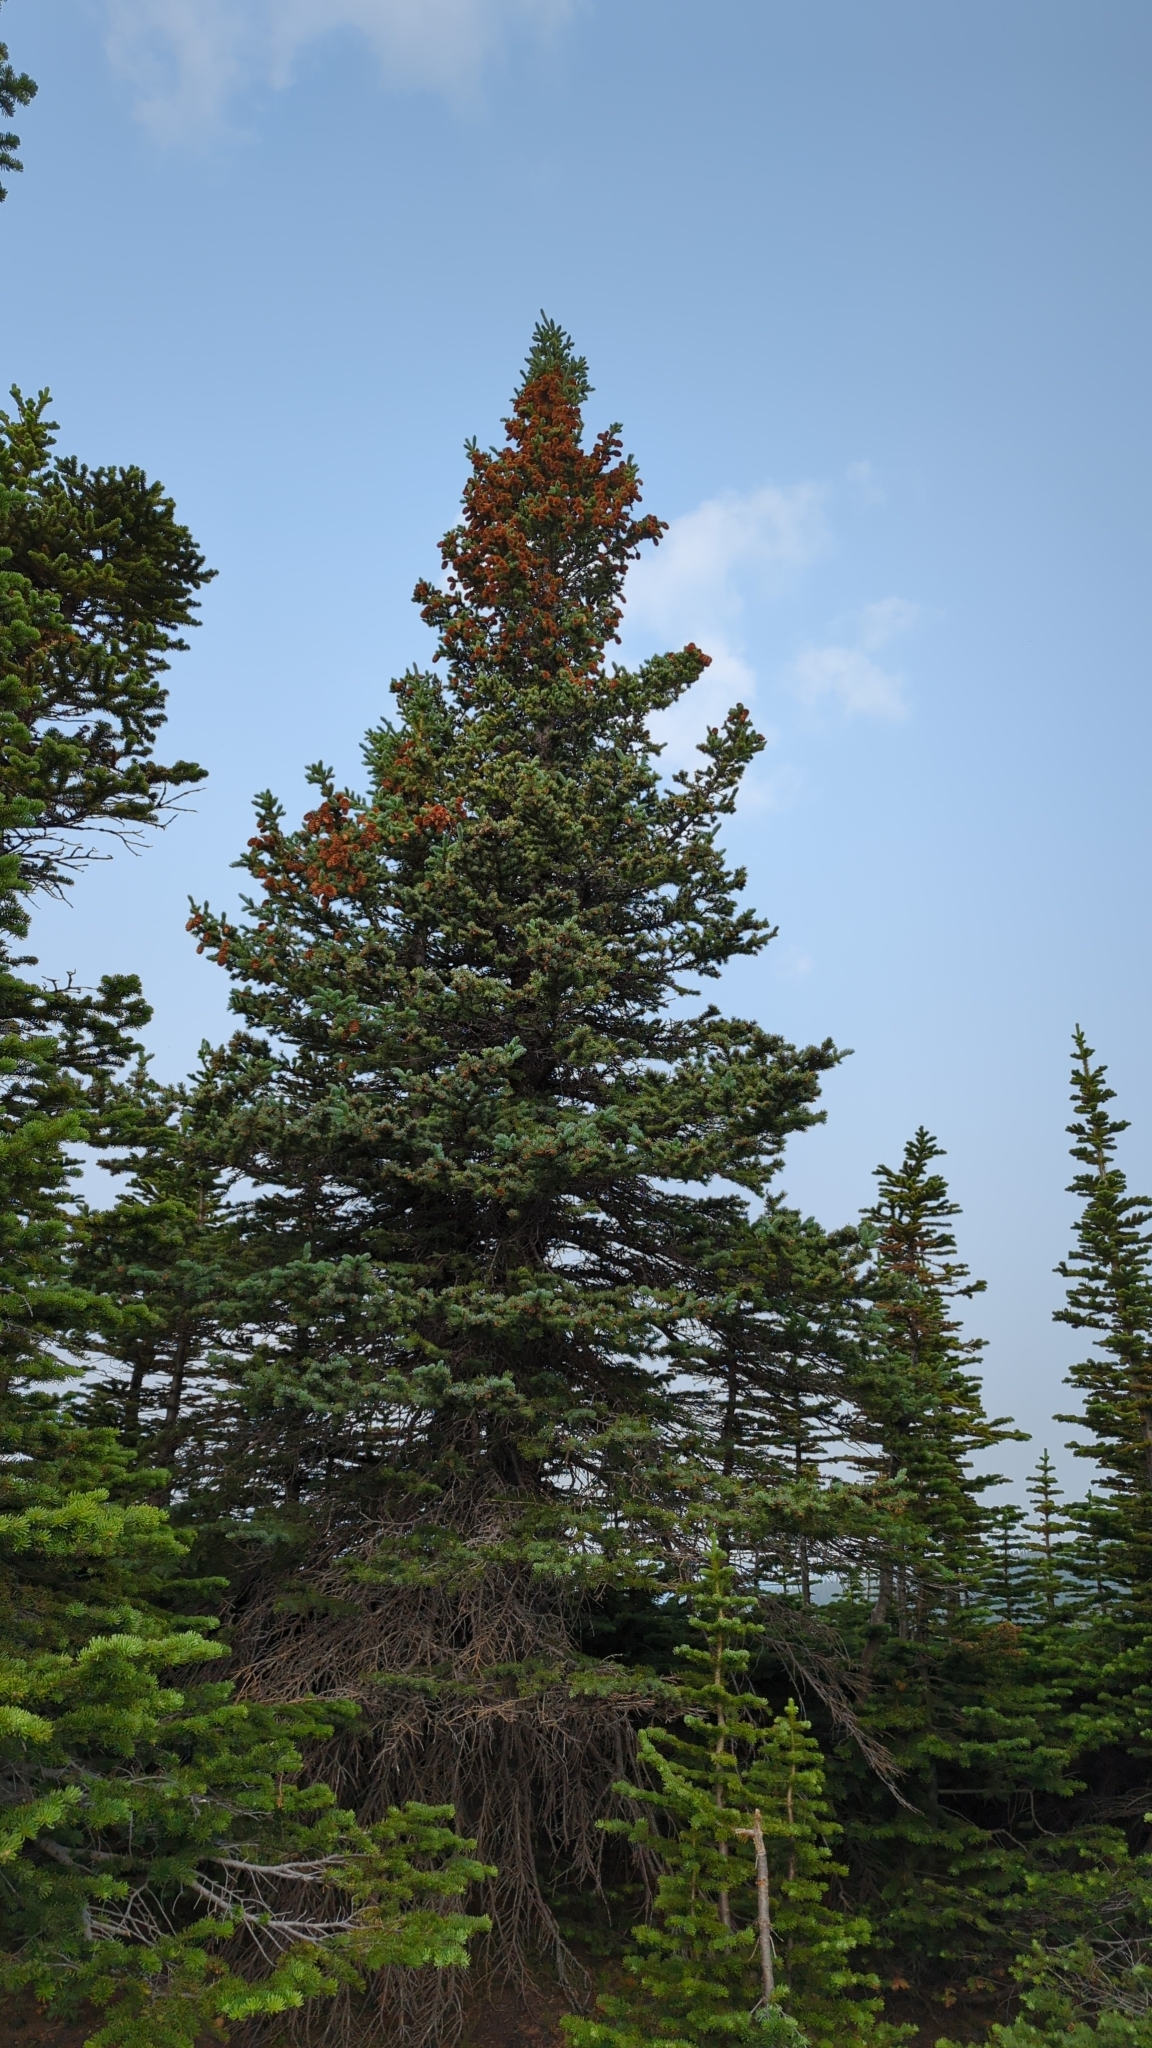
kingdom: Plantae
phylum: Tracheophyta
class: Pinopsida
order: Pinales
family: Pinaceae
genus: Abies
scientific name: Abies lasiocarpa
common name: Subalpine fir
